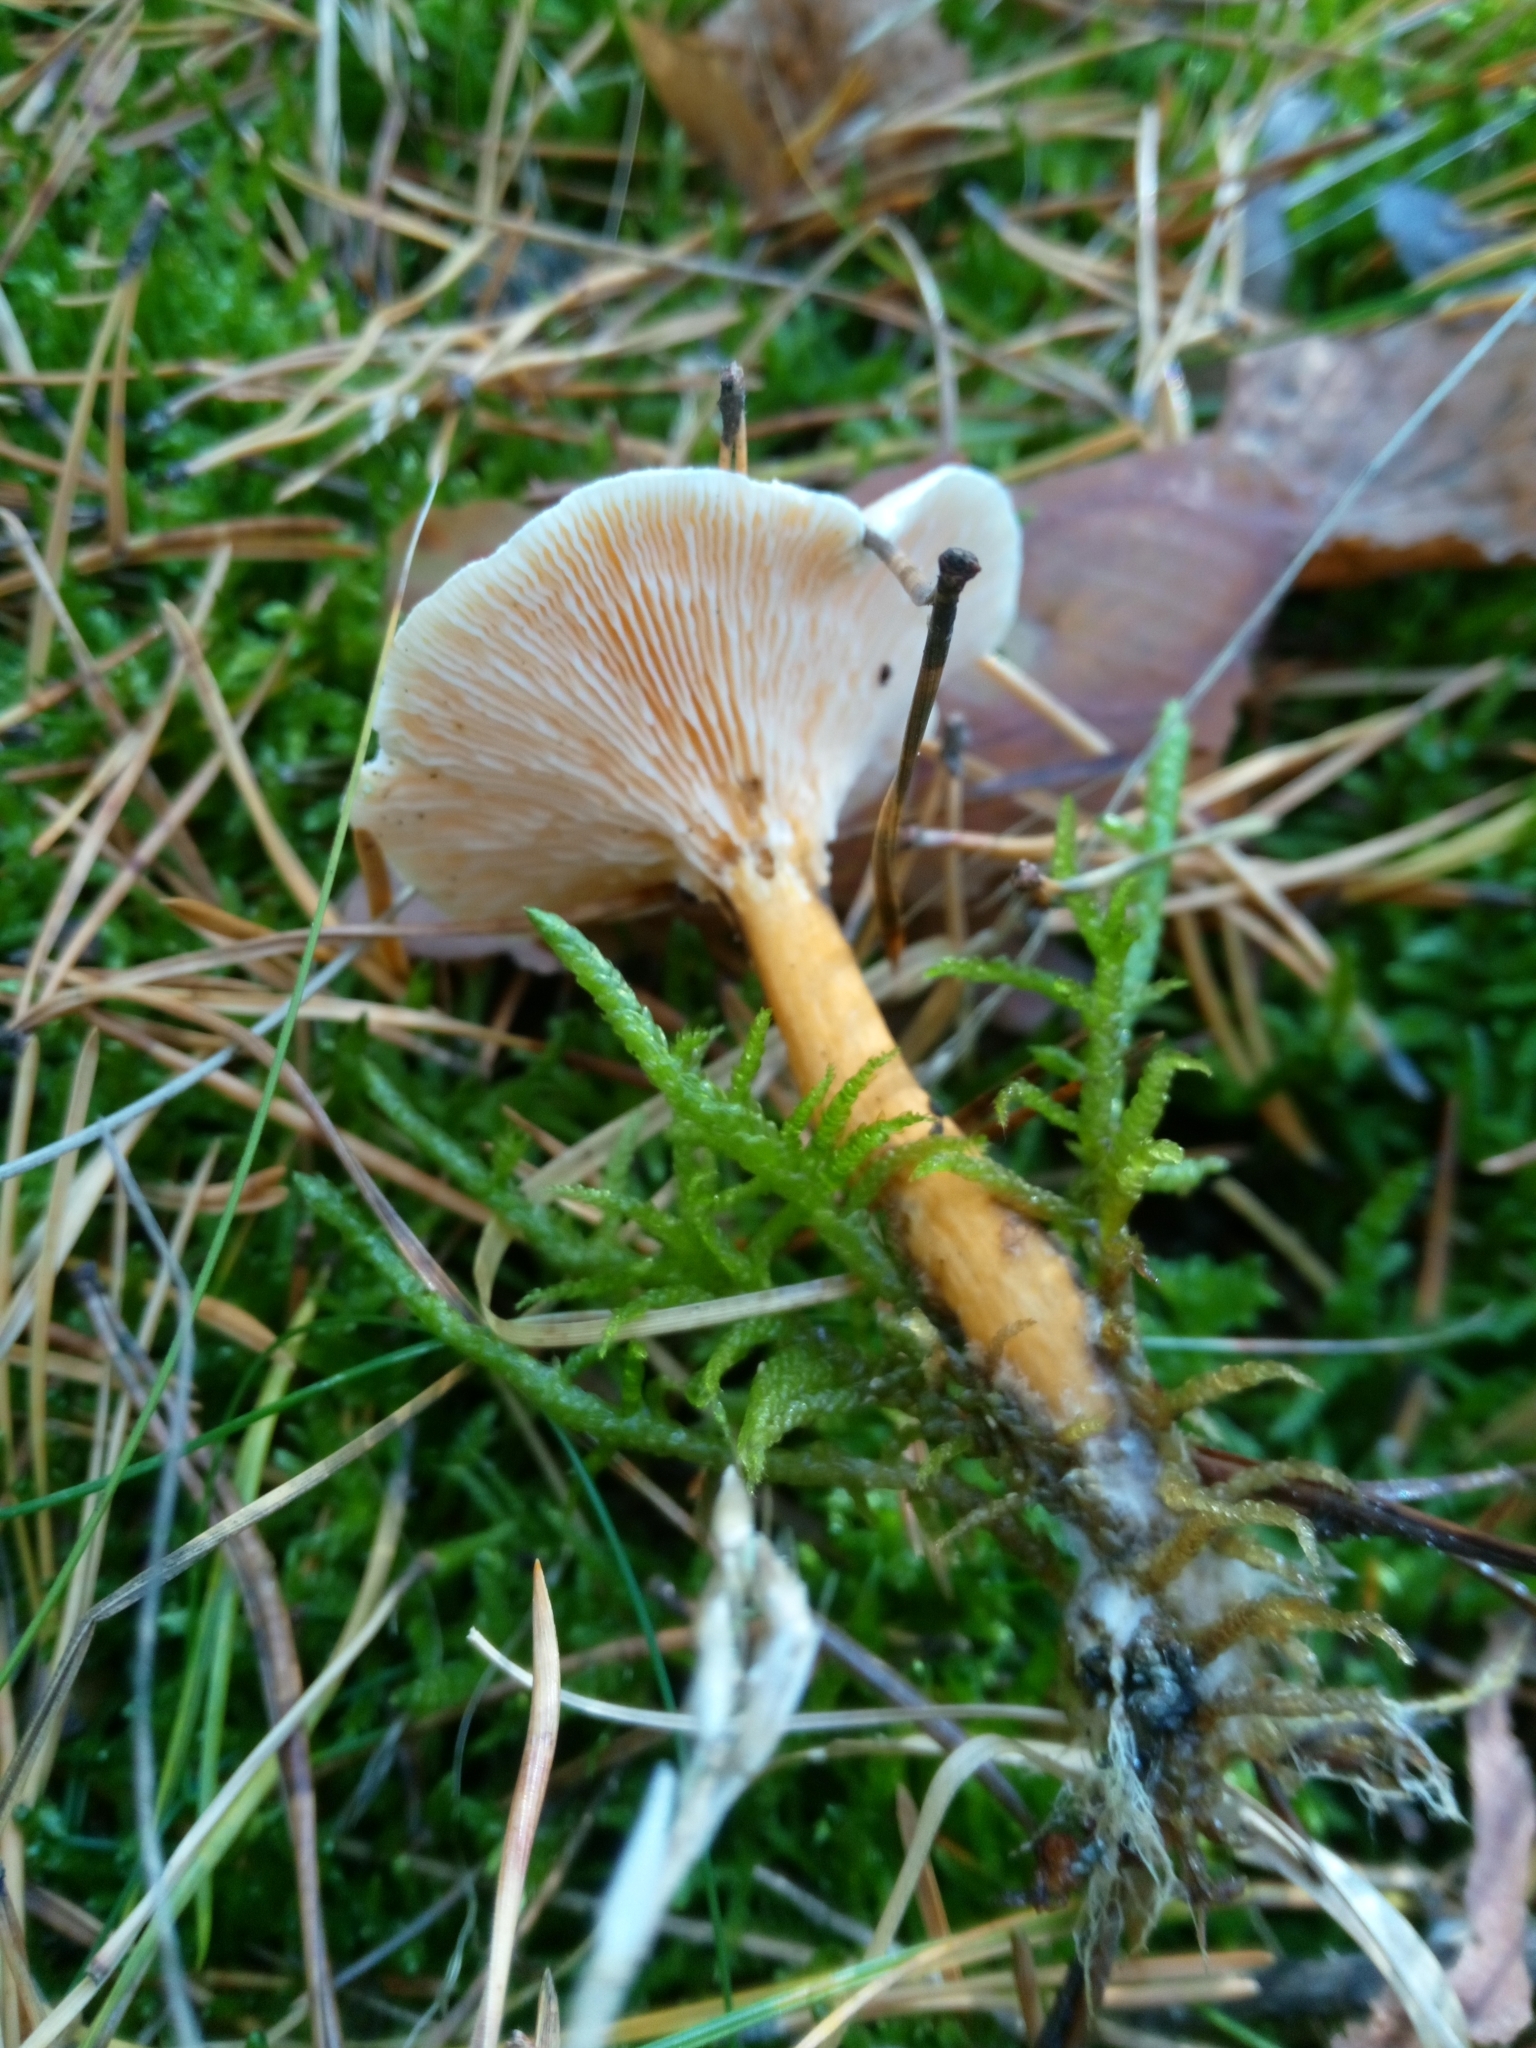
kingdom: Fungi
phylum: Basidiomycota
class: Agaricomycetes
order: Boletales
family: Hygrophoropsidaceae
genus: Hygrophoropsis
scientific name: Hygrophoropsis aurantiaca
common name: False chanterelle
